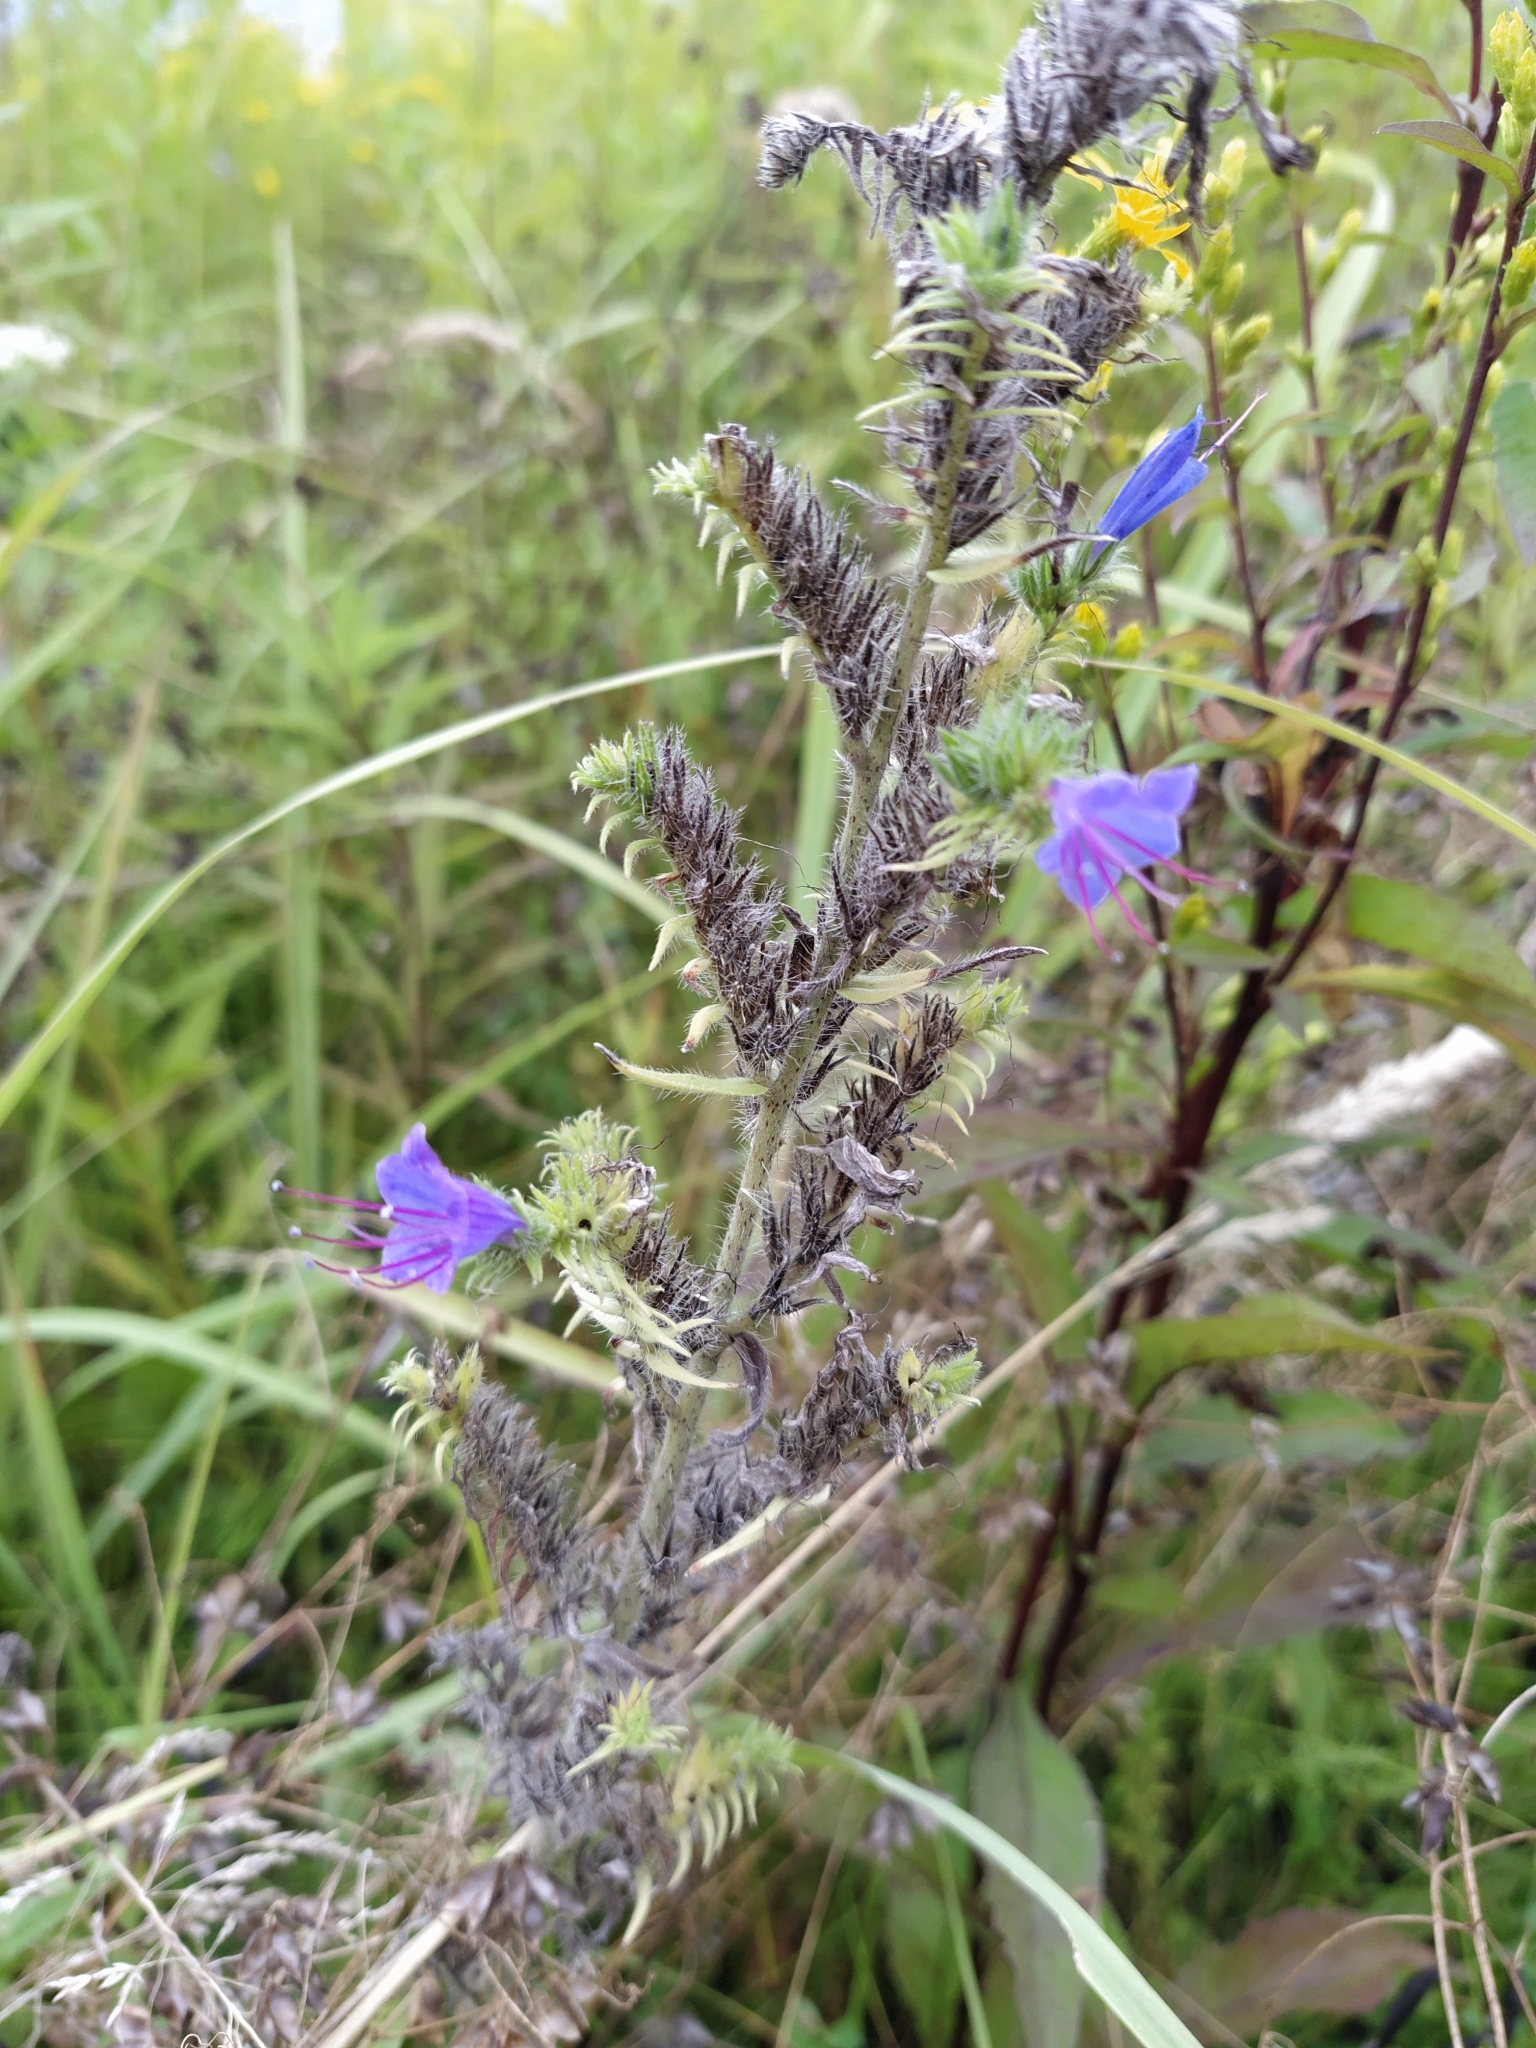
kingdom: Plantae
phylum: Tracheophyta
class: Magnoliopsida
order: Boraginales
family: Boraginaceae
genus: Echium
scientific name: Echium vulgare
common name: Common viper's bugloss
